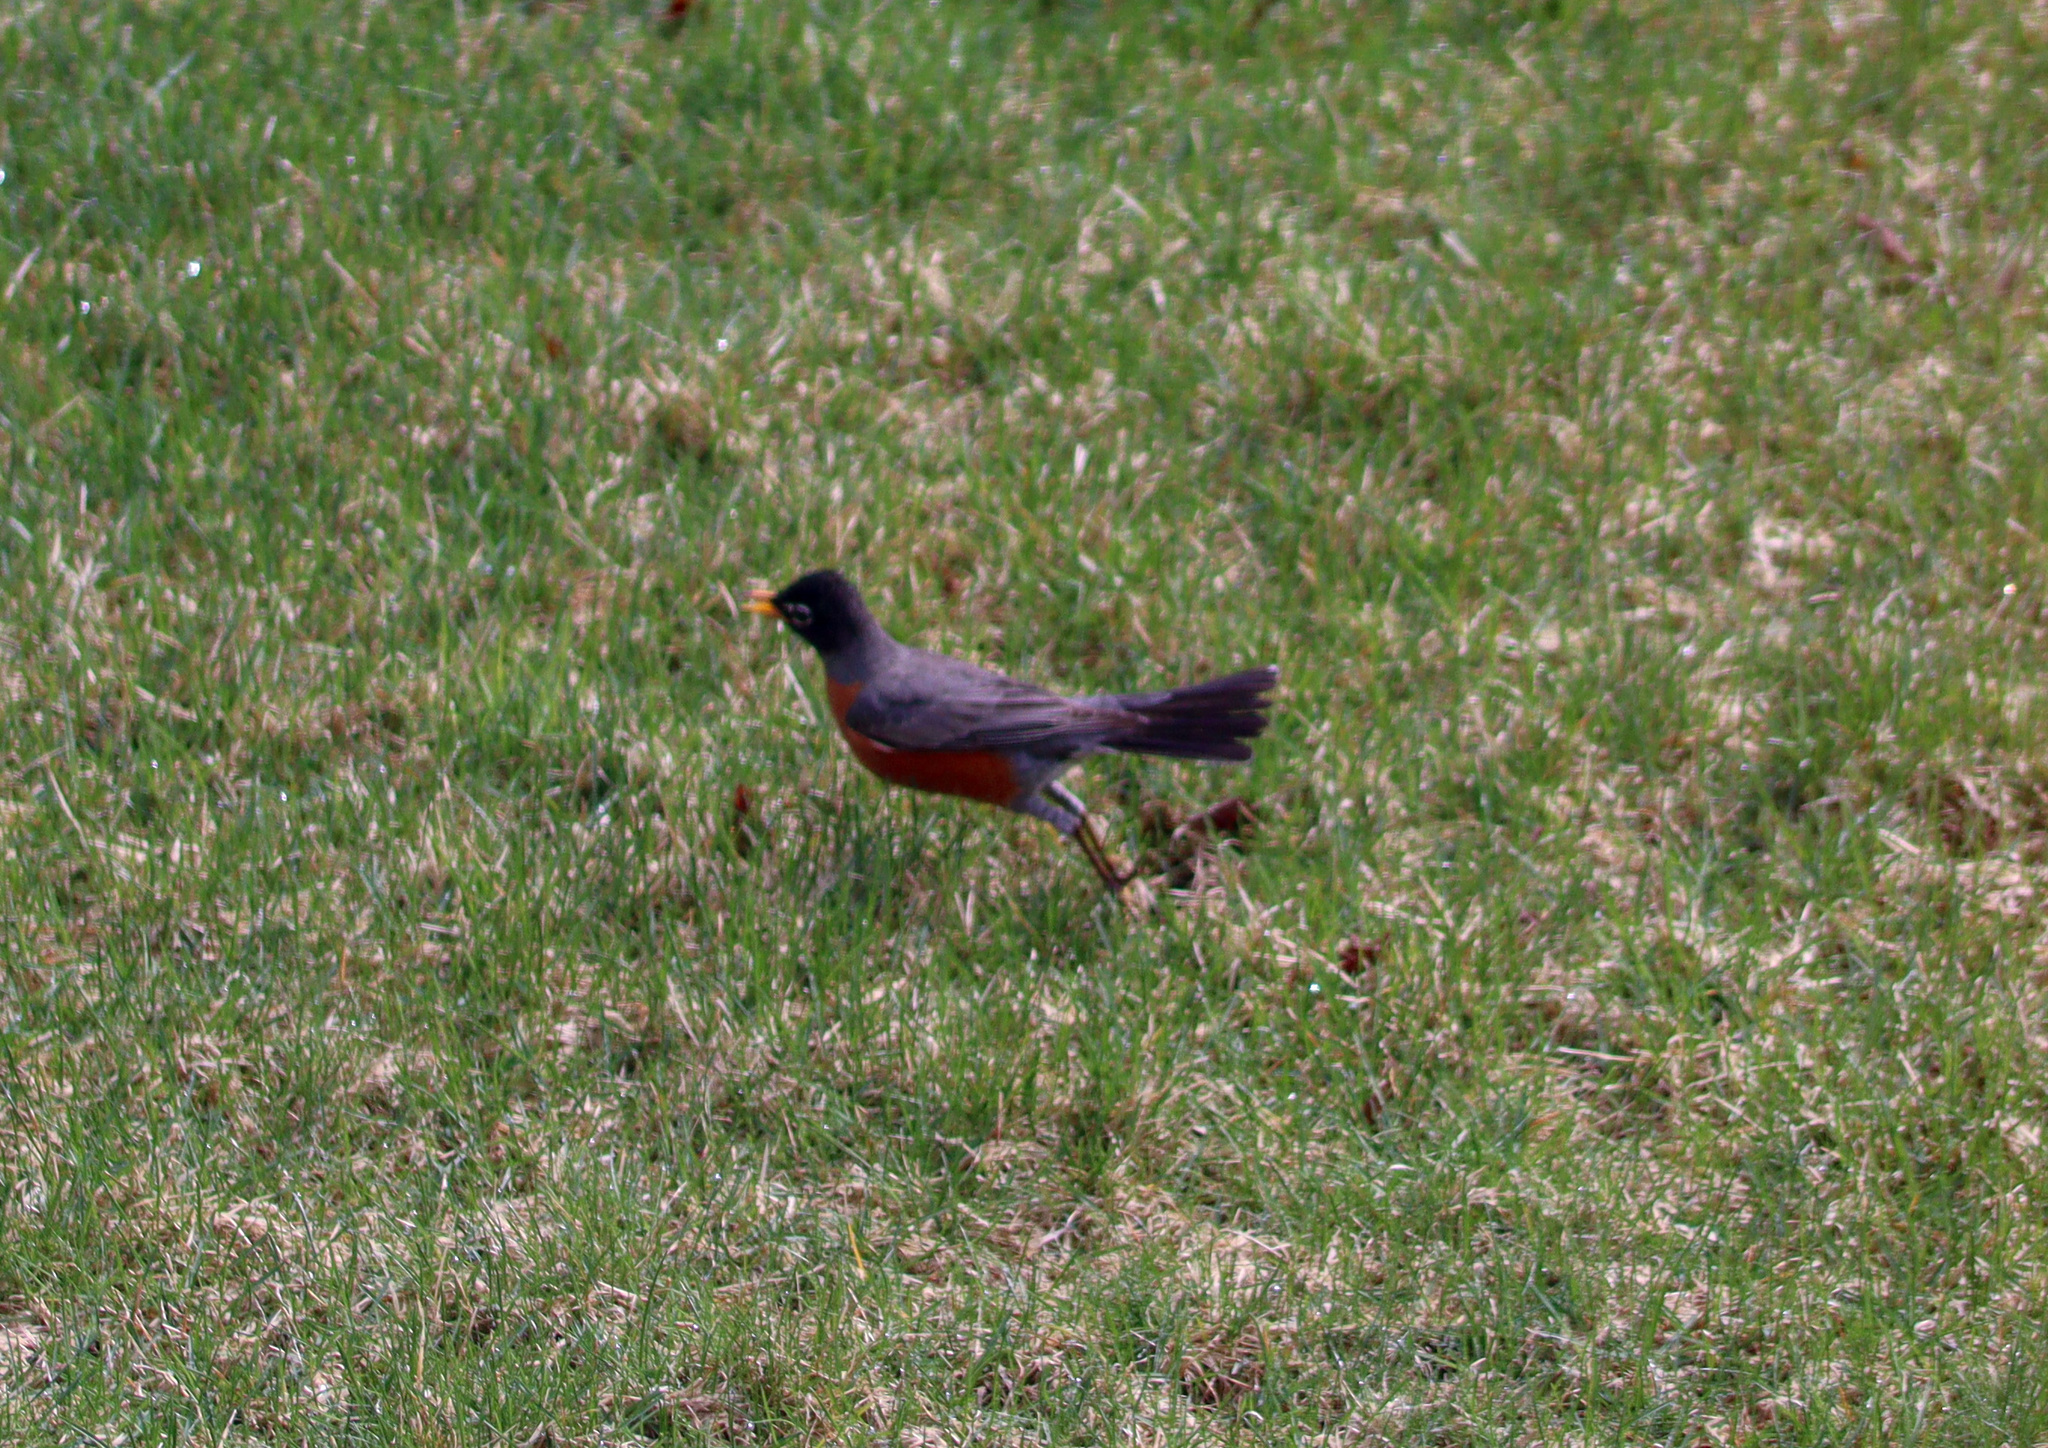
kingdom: Animalia
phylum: Chordata
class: Aves
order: Passeriformes
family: Turdidae
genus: Turdus
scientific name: Turdus migratorius
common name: American robin
